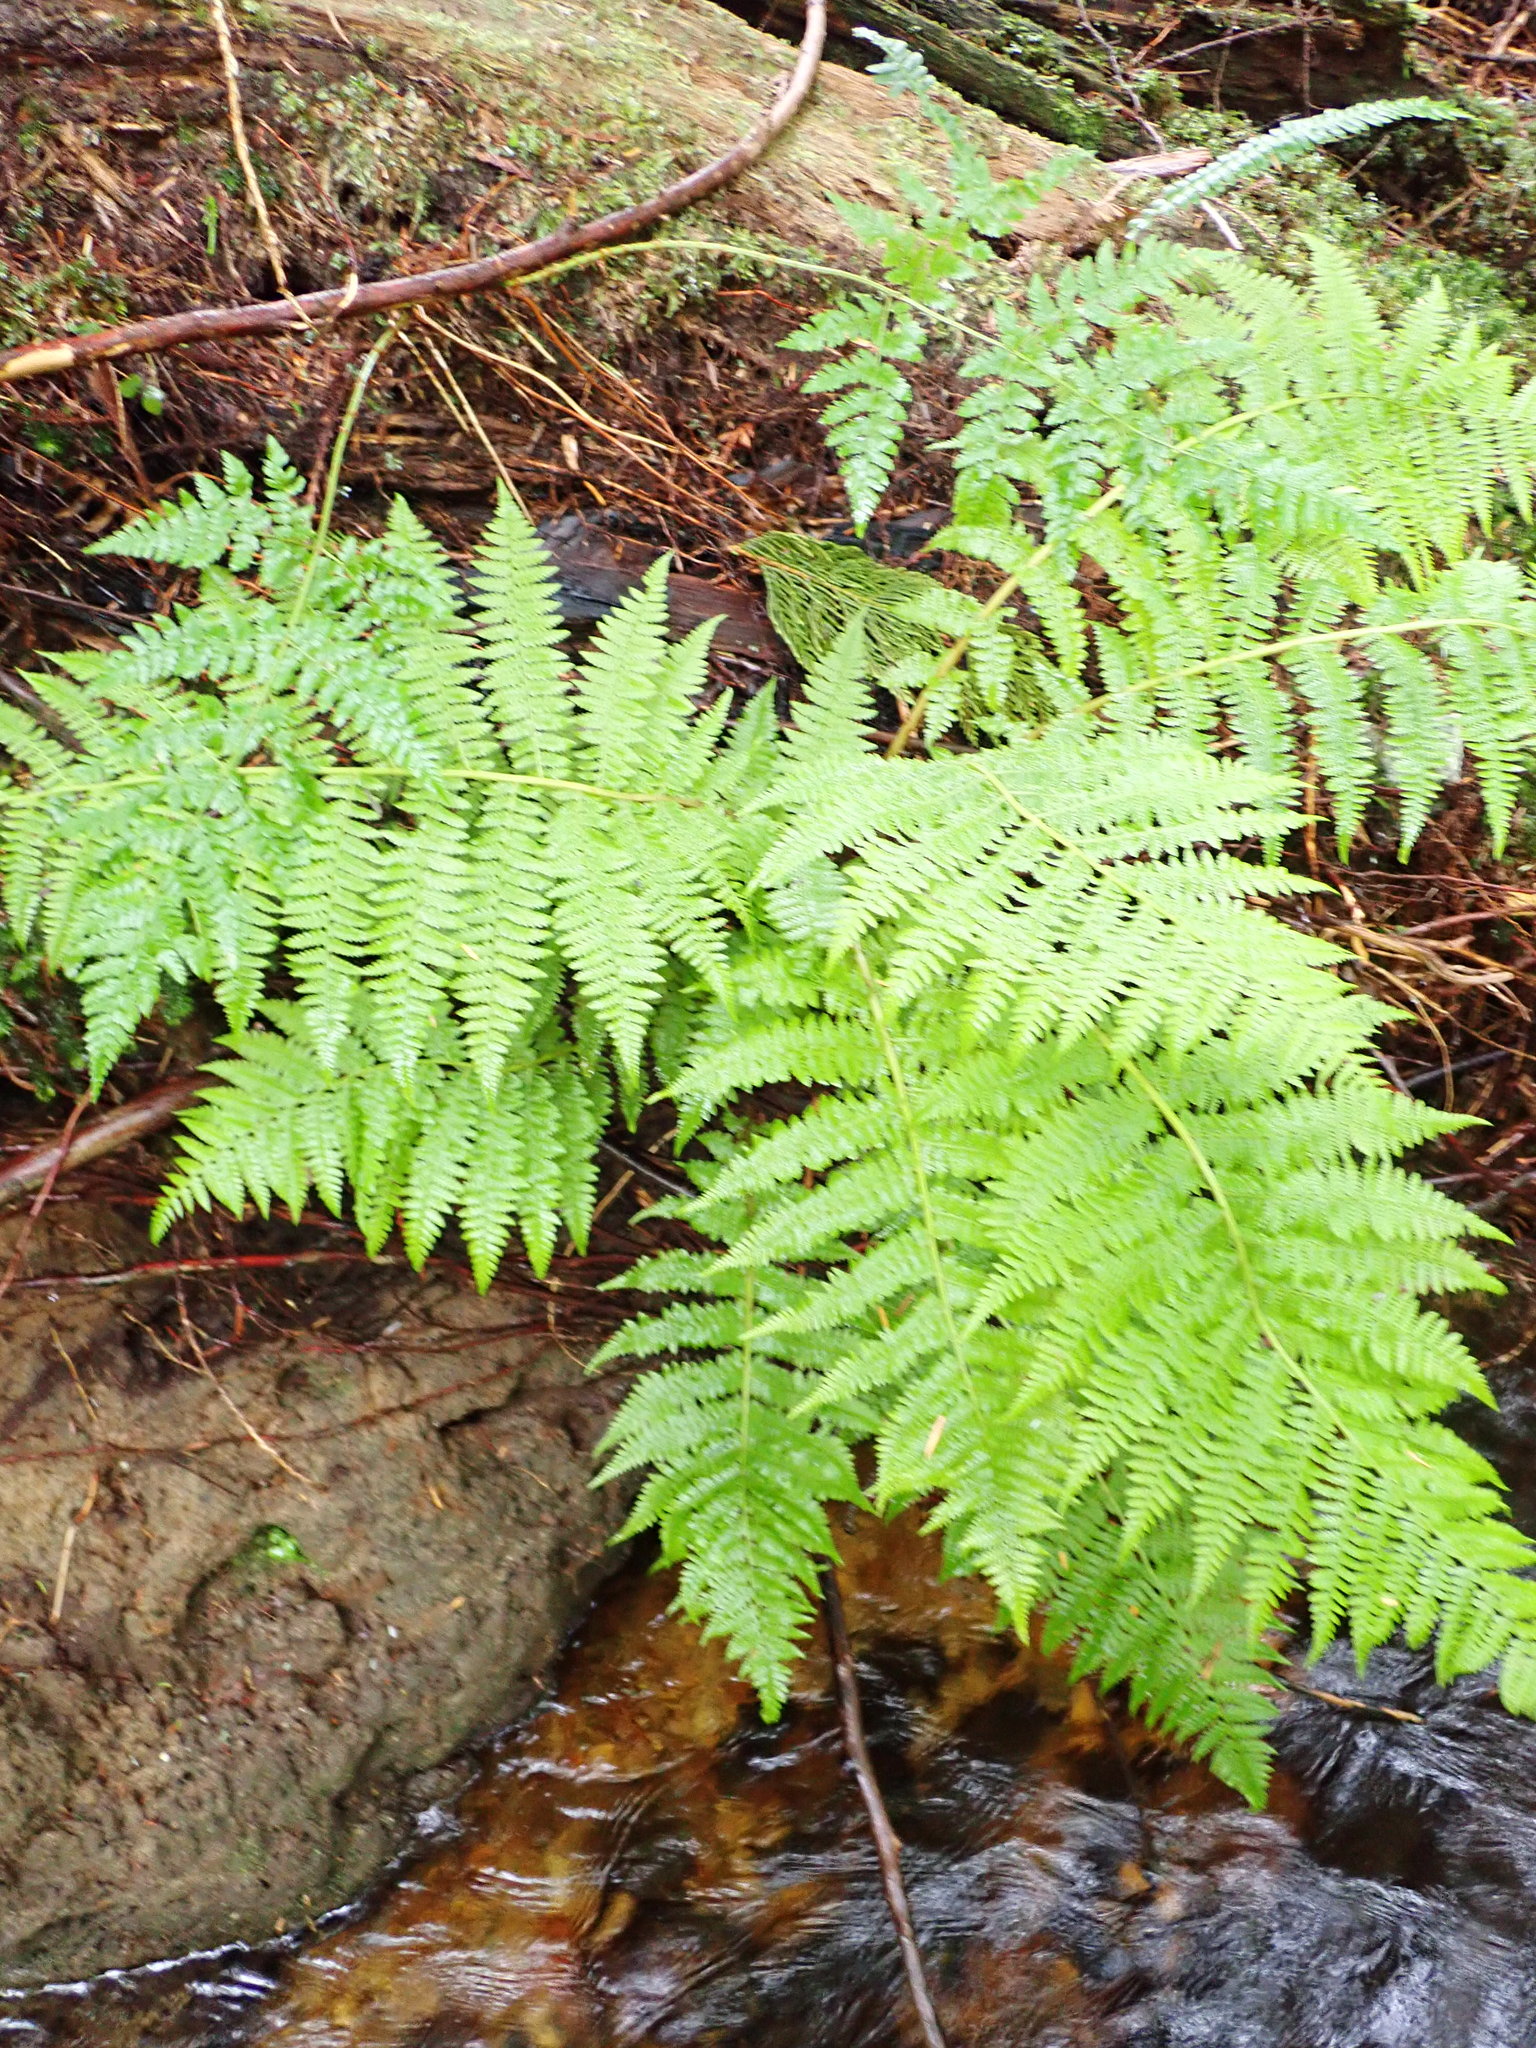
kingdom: Plantae
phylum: Tracheophyta
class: Polypodiopsida
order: Polypodiales
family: Athyriaceae
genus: Athyrium
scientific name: Athyrium filix-femina
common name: Lady fern
